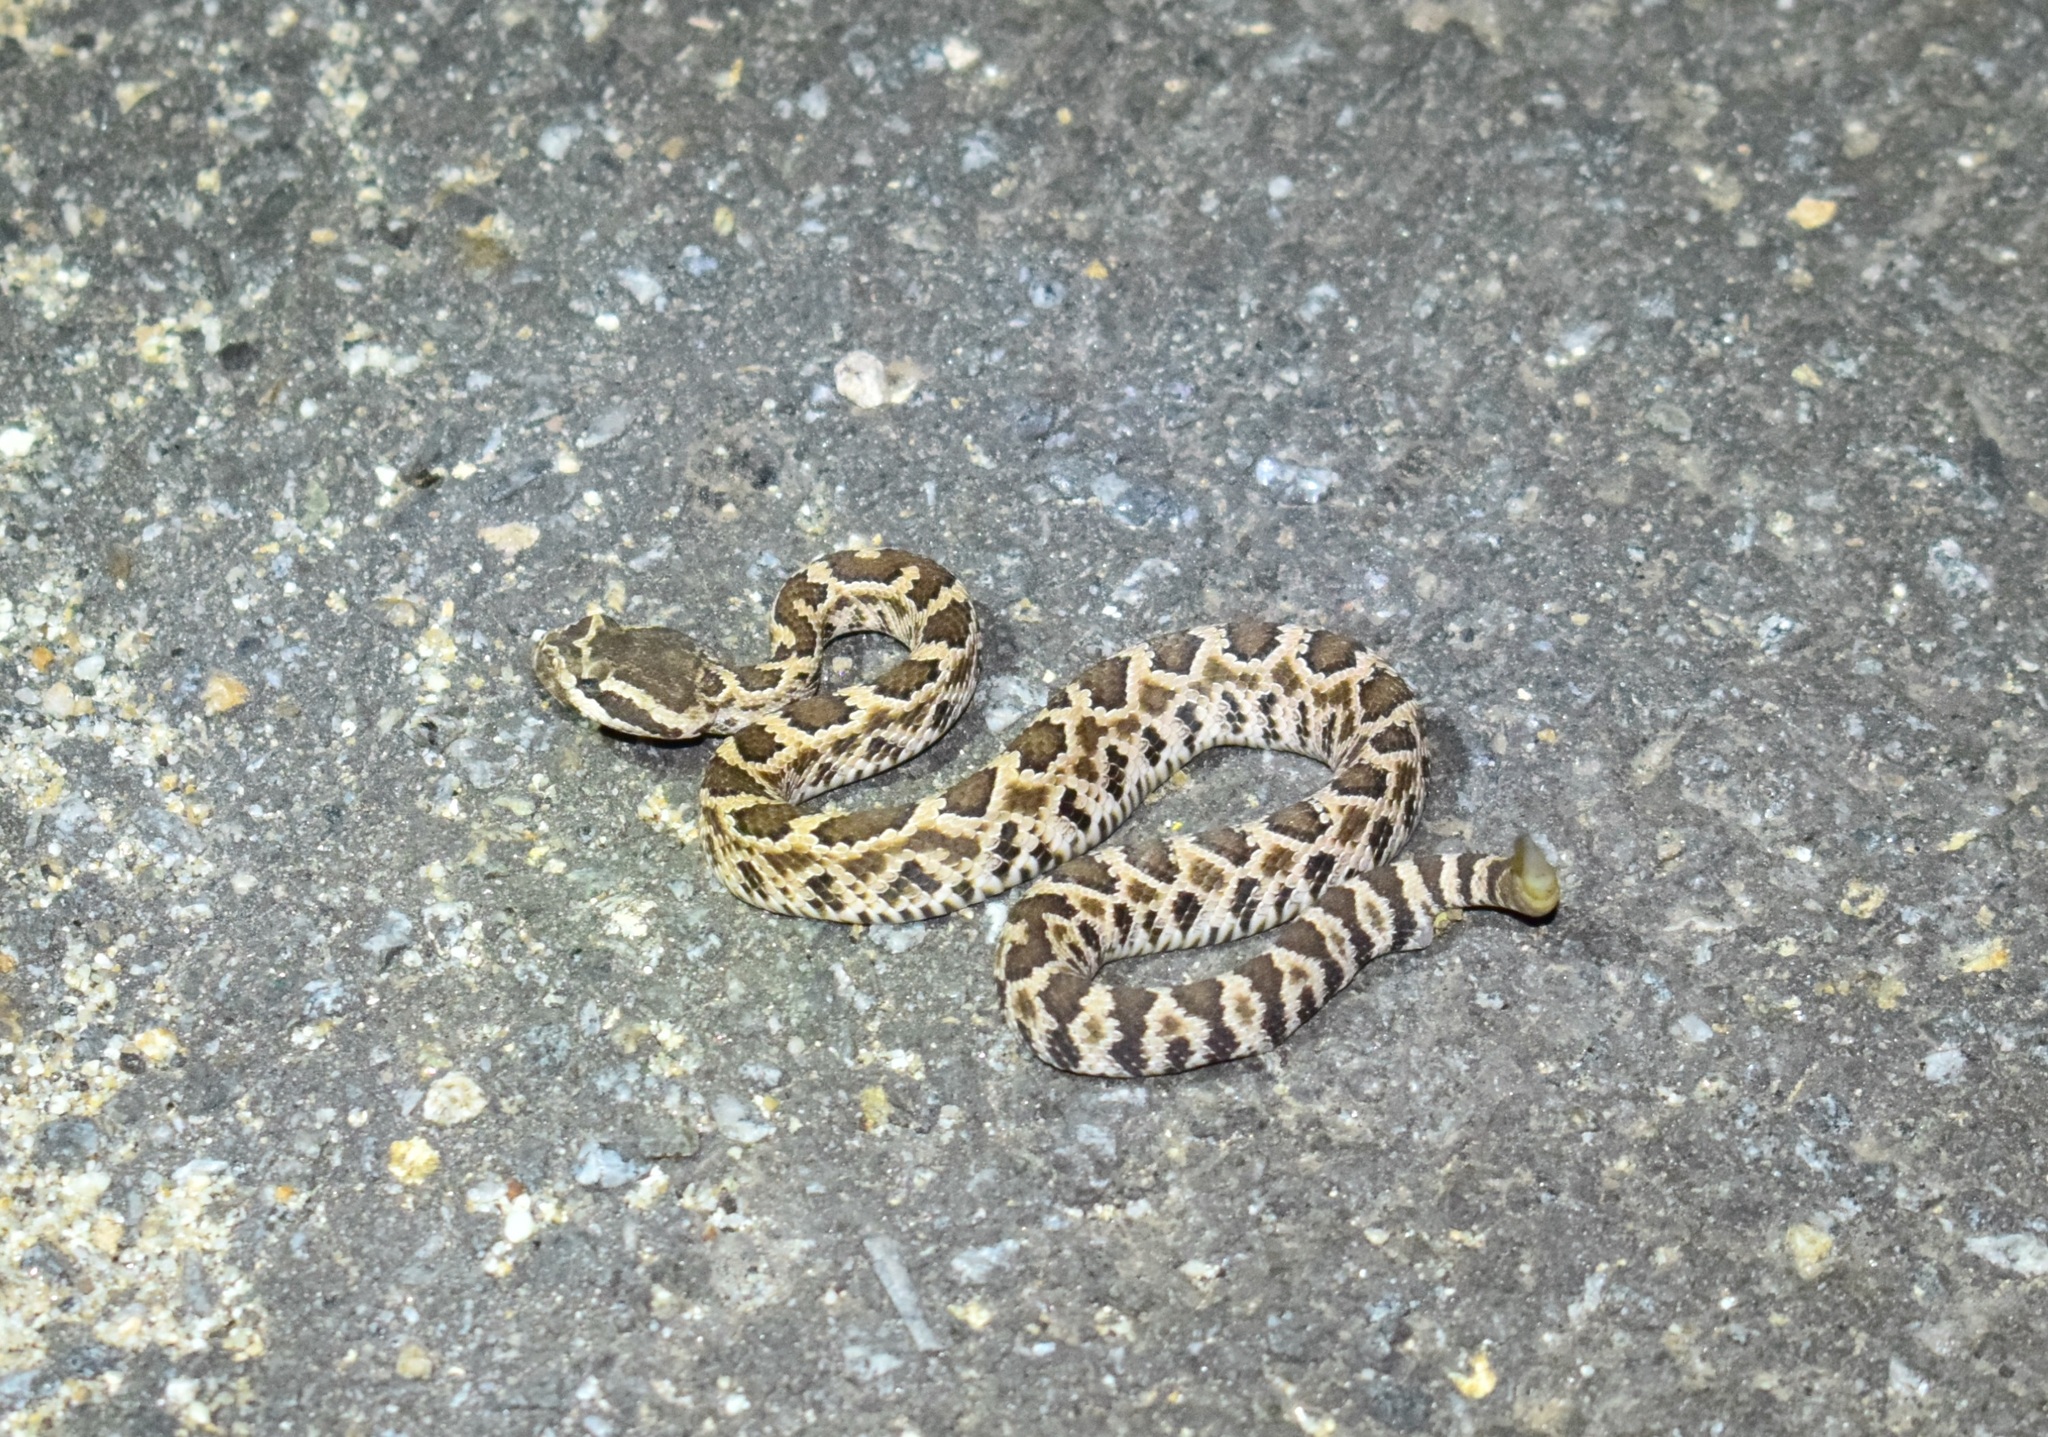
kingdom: Animalia
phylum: Chordata
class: Squamata
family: Viperidae
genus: Crotalus
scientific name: Crotalus oreganus
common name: Abyssus
